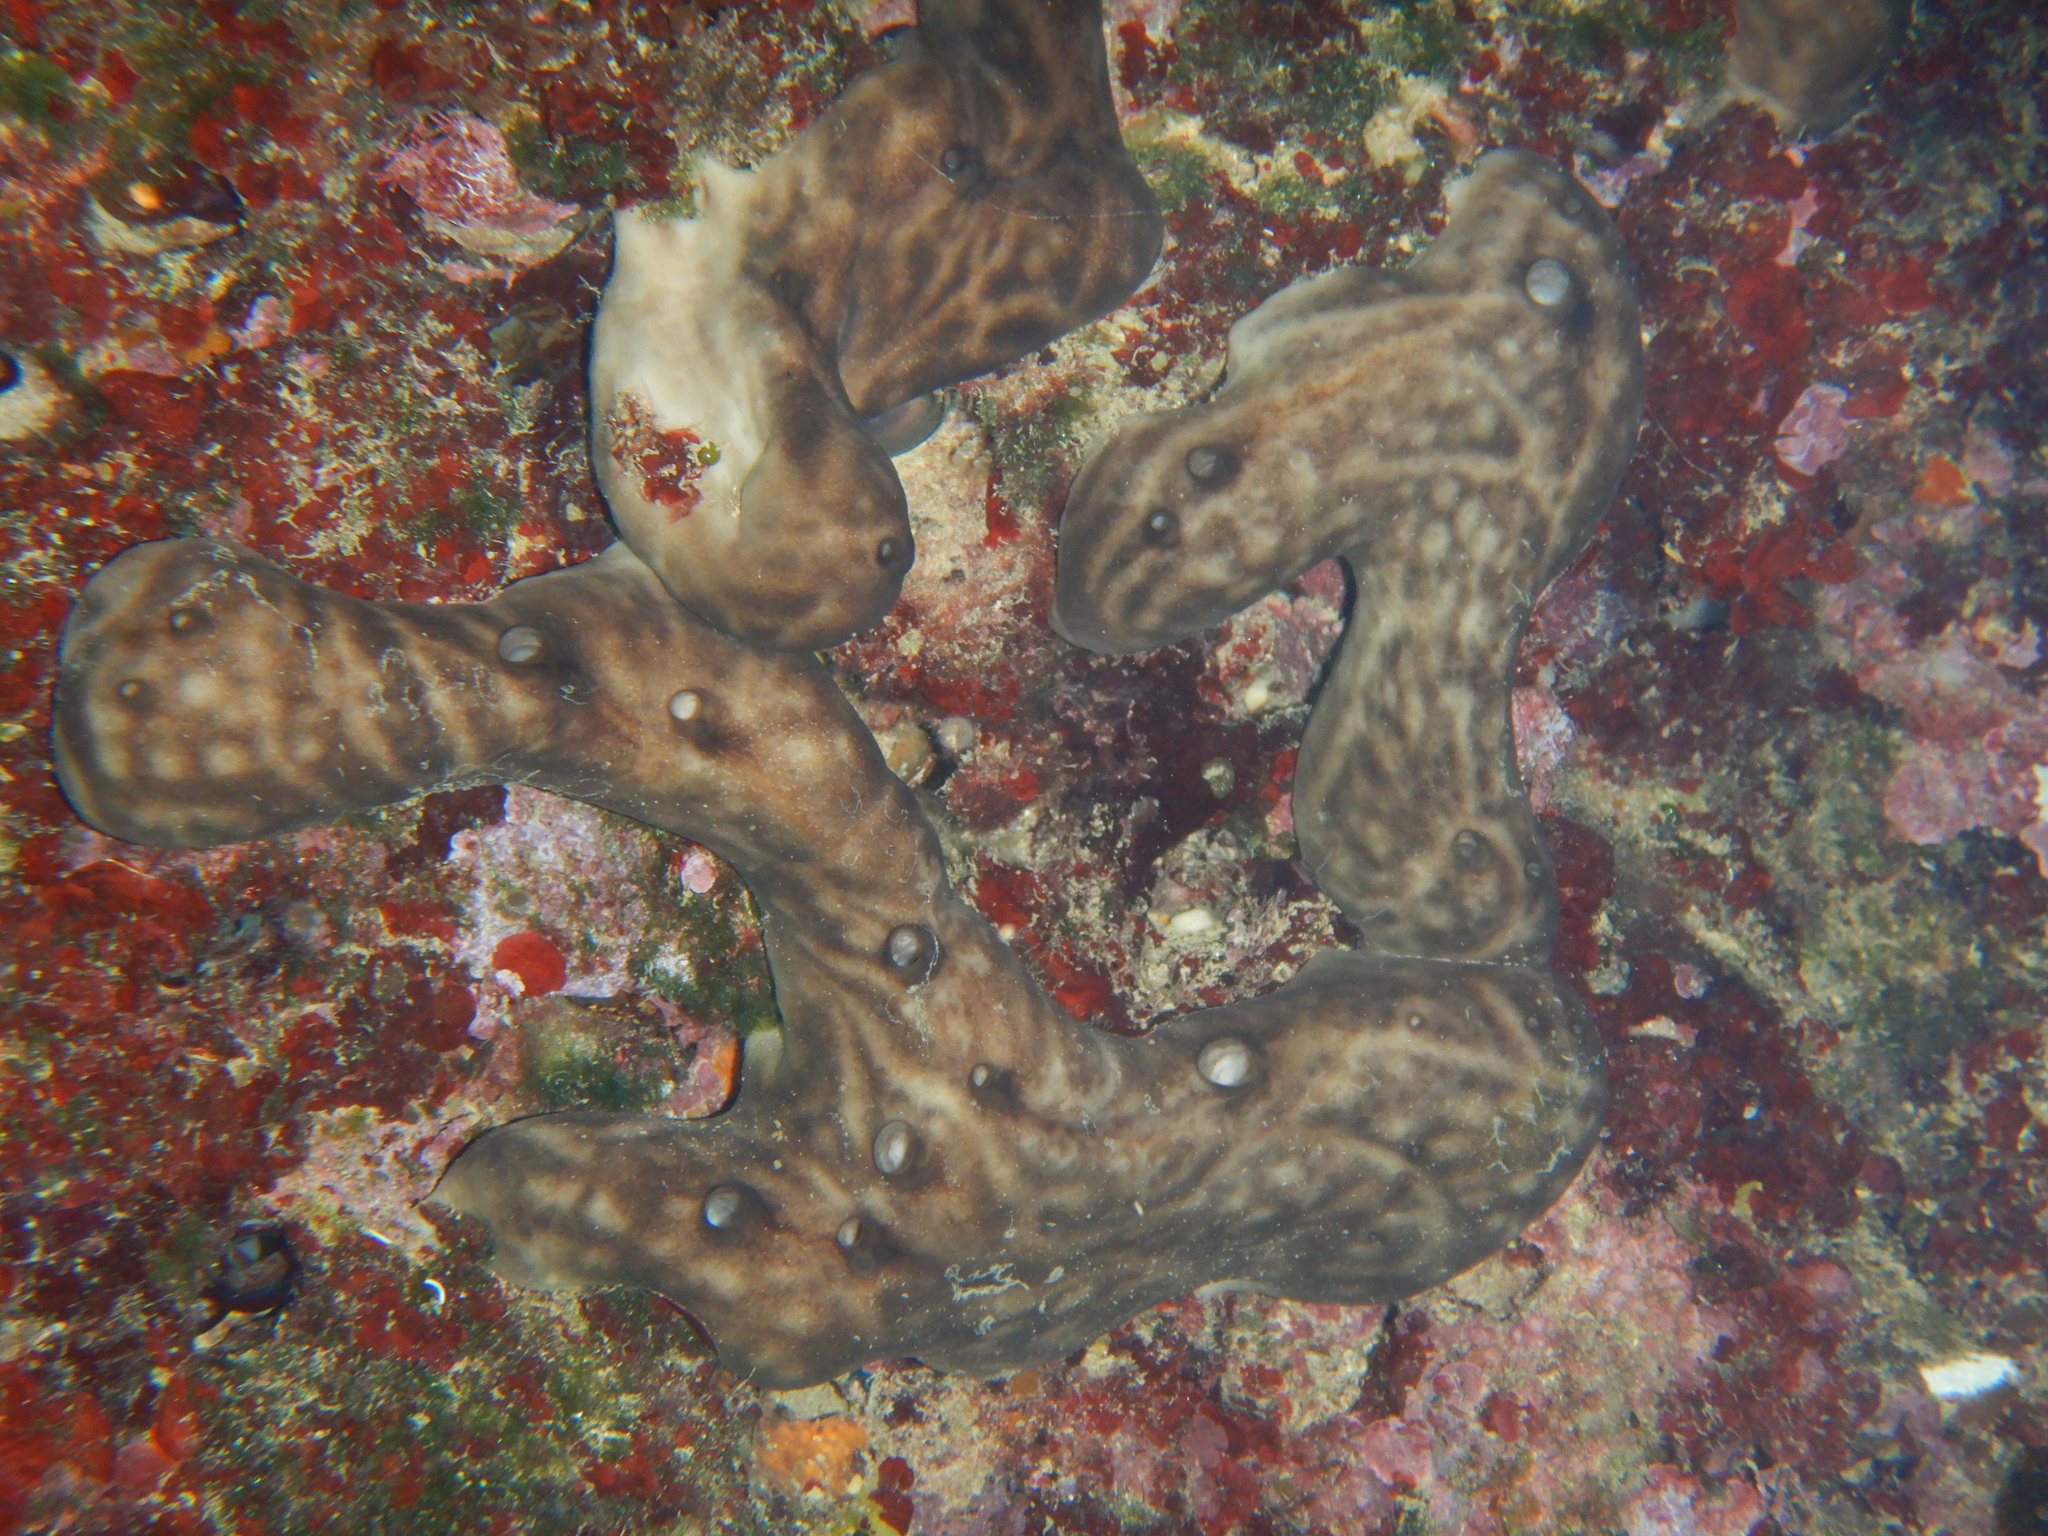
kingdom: Animalia
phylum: Porifera
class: Demospongiae
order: Chondrosiida
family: Chondrosiidae
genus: Chondrosia
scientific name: Chondrosia reniformis
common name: Chicken liver sponge
